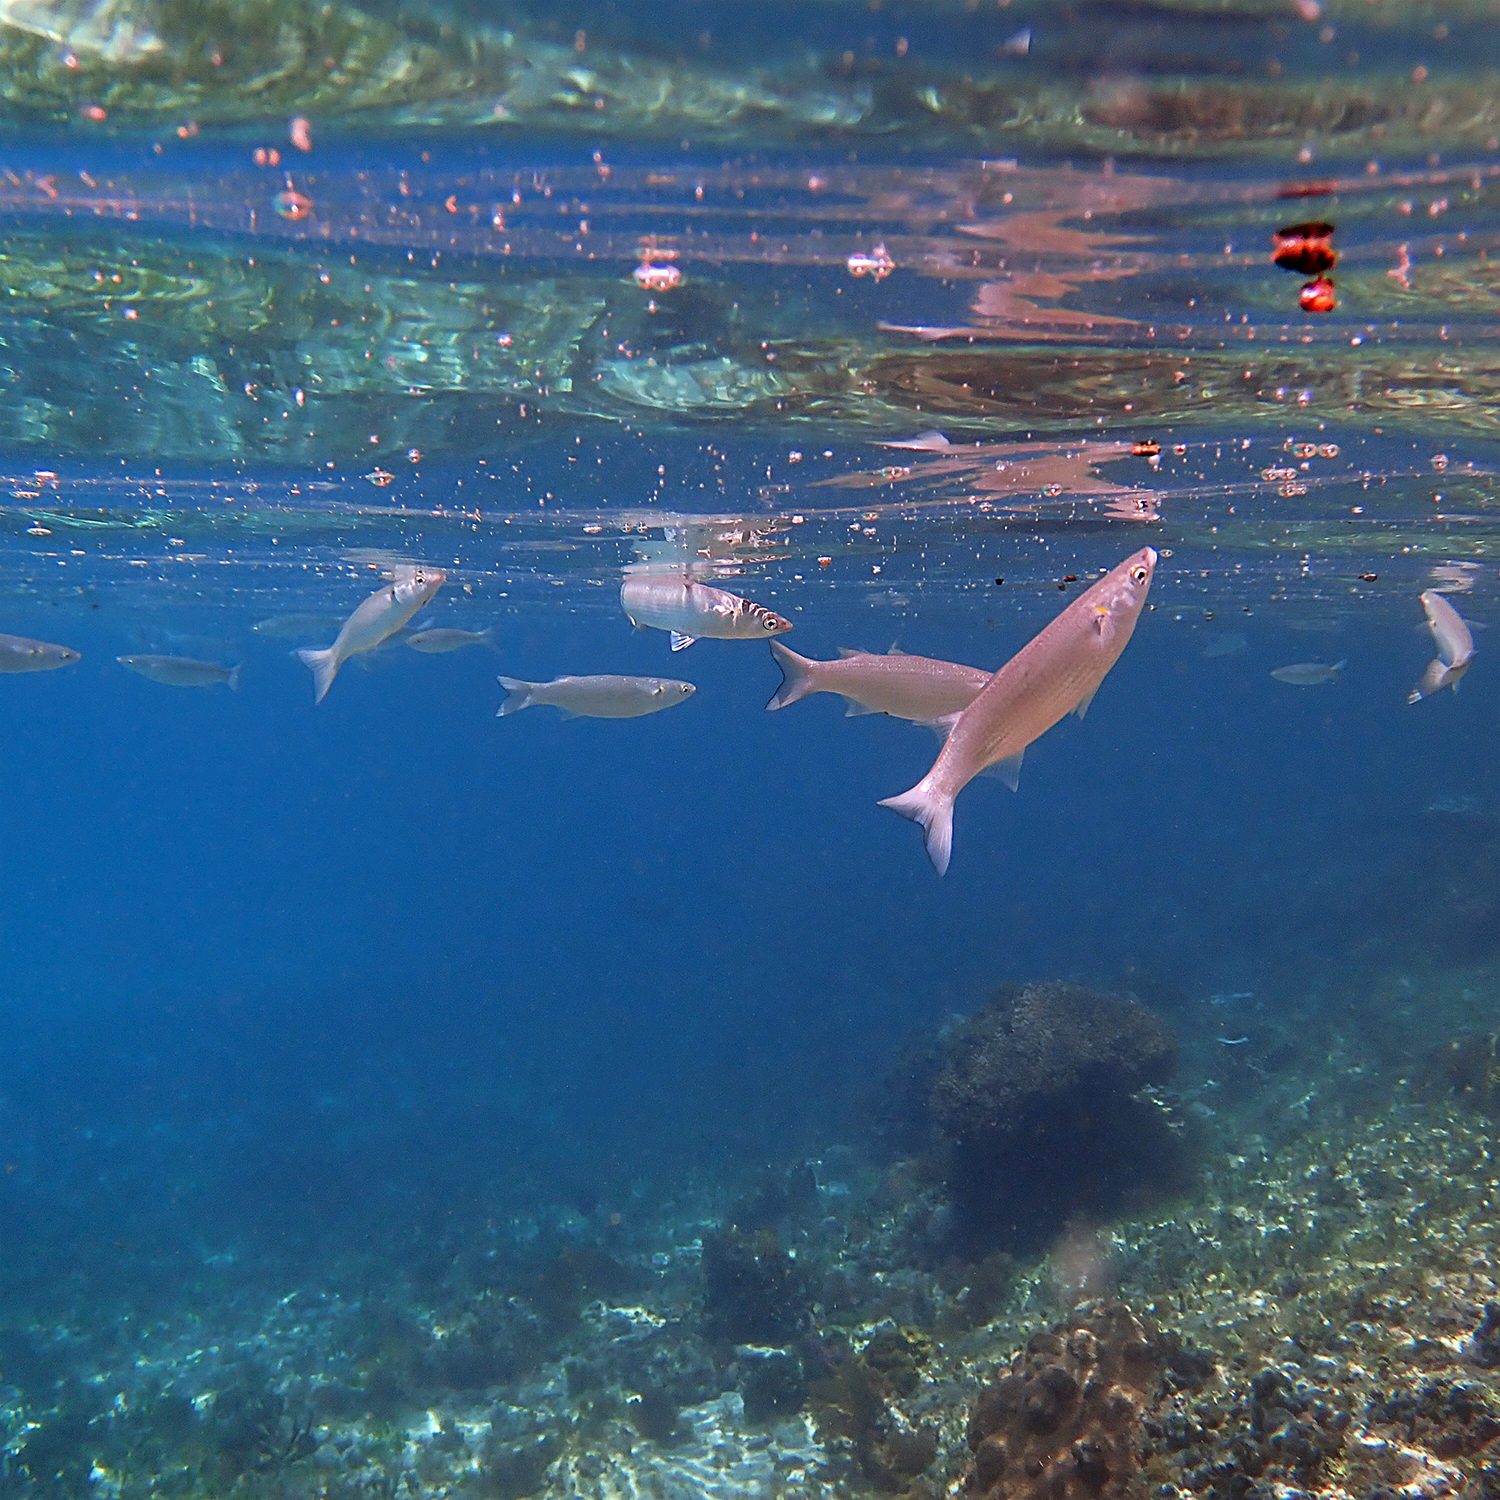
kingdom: Animalia
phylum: Chordata
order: Mugiliformes
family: Mugilidae
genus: Myxus
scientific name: Myxus elongatus
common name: Sand grey mullet
